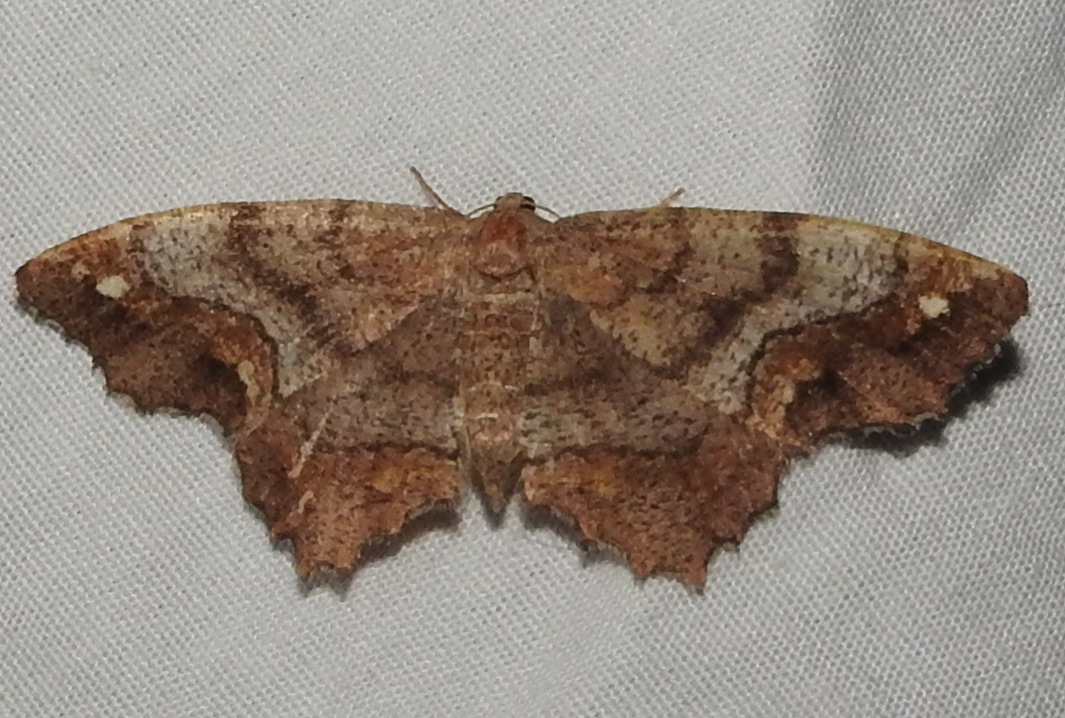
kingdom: Animalia
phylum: Arthropoda
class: Insecta
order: Lepidoptera
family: Geometridae
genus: Hypagyrtis
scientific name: Hypagyrtis unipunctata
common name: One-spotted variant
